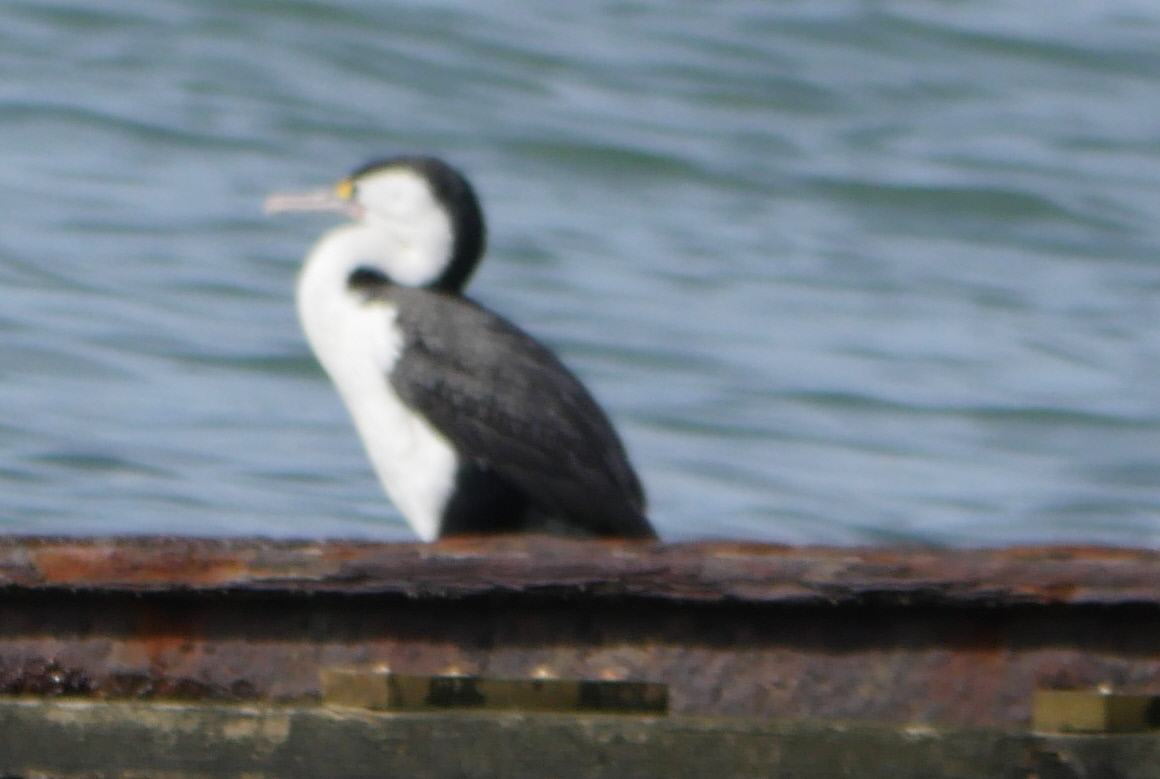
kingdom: Animalia
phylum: Chordata
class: Aves
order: Suliformes
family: Phalacrocoracidae
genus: Phalacrocorax
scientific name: Phalacrocorax varius
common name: Pied cormorant
